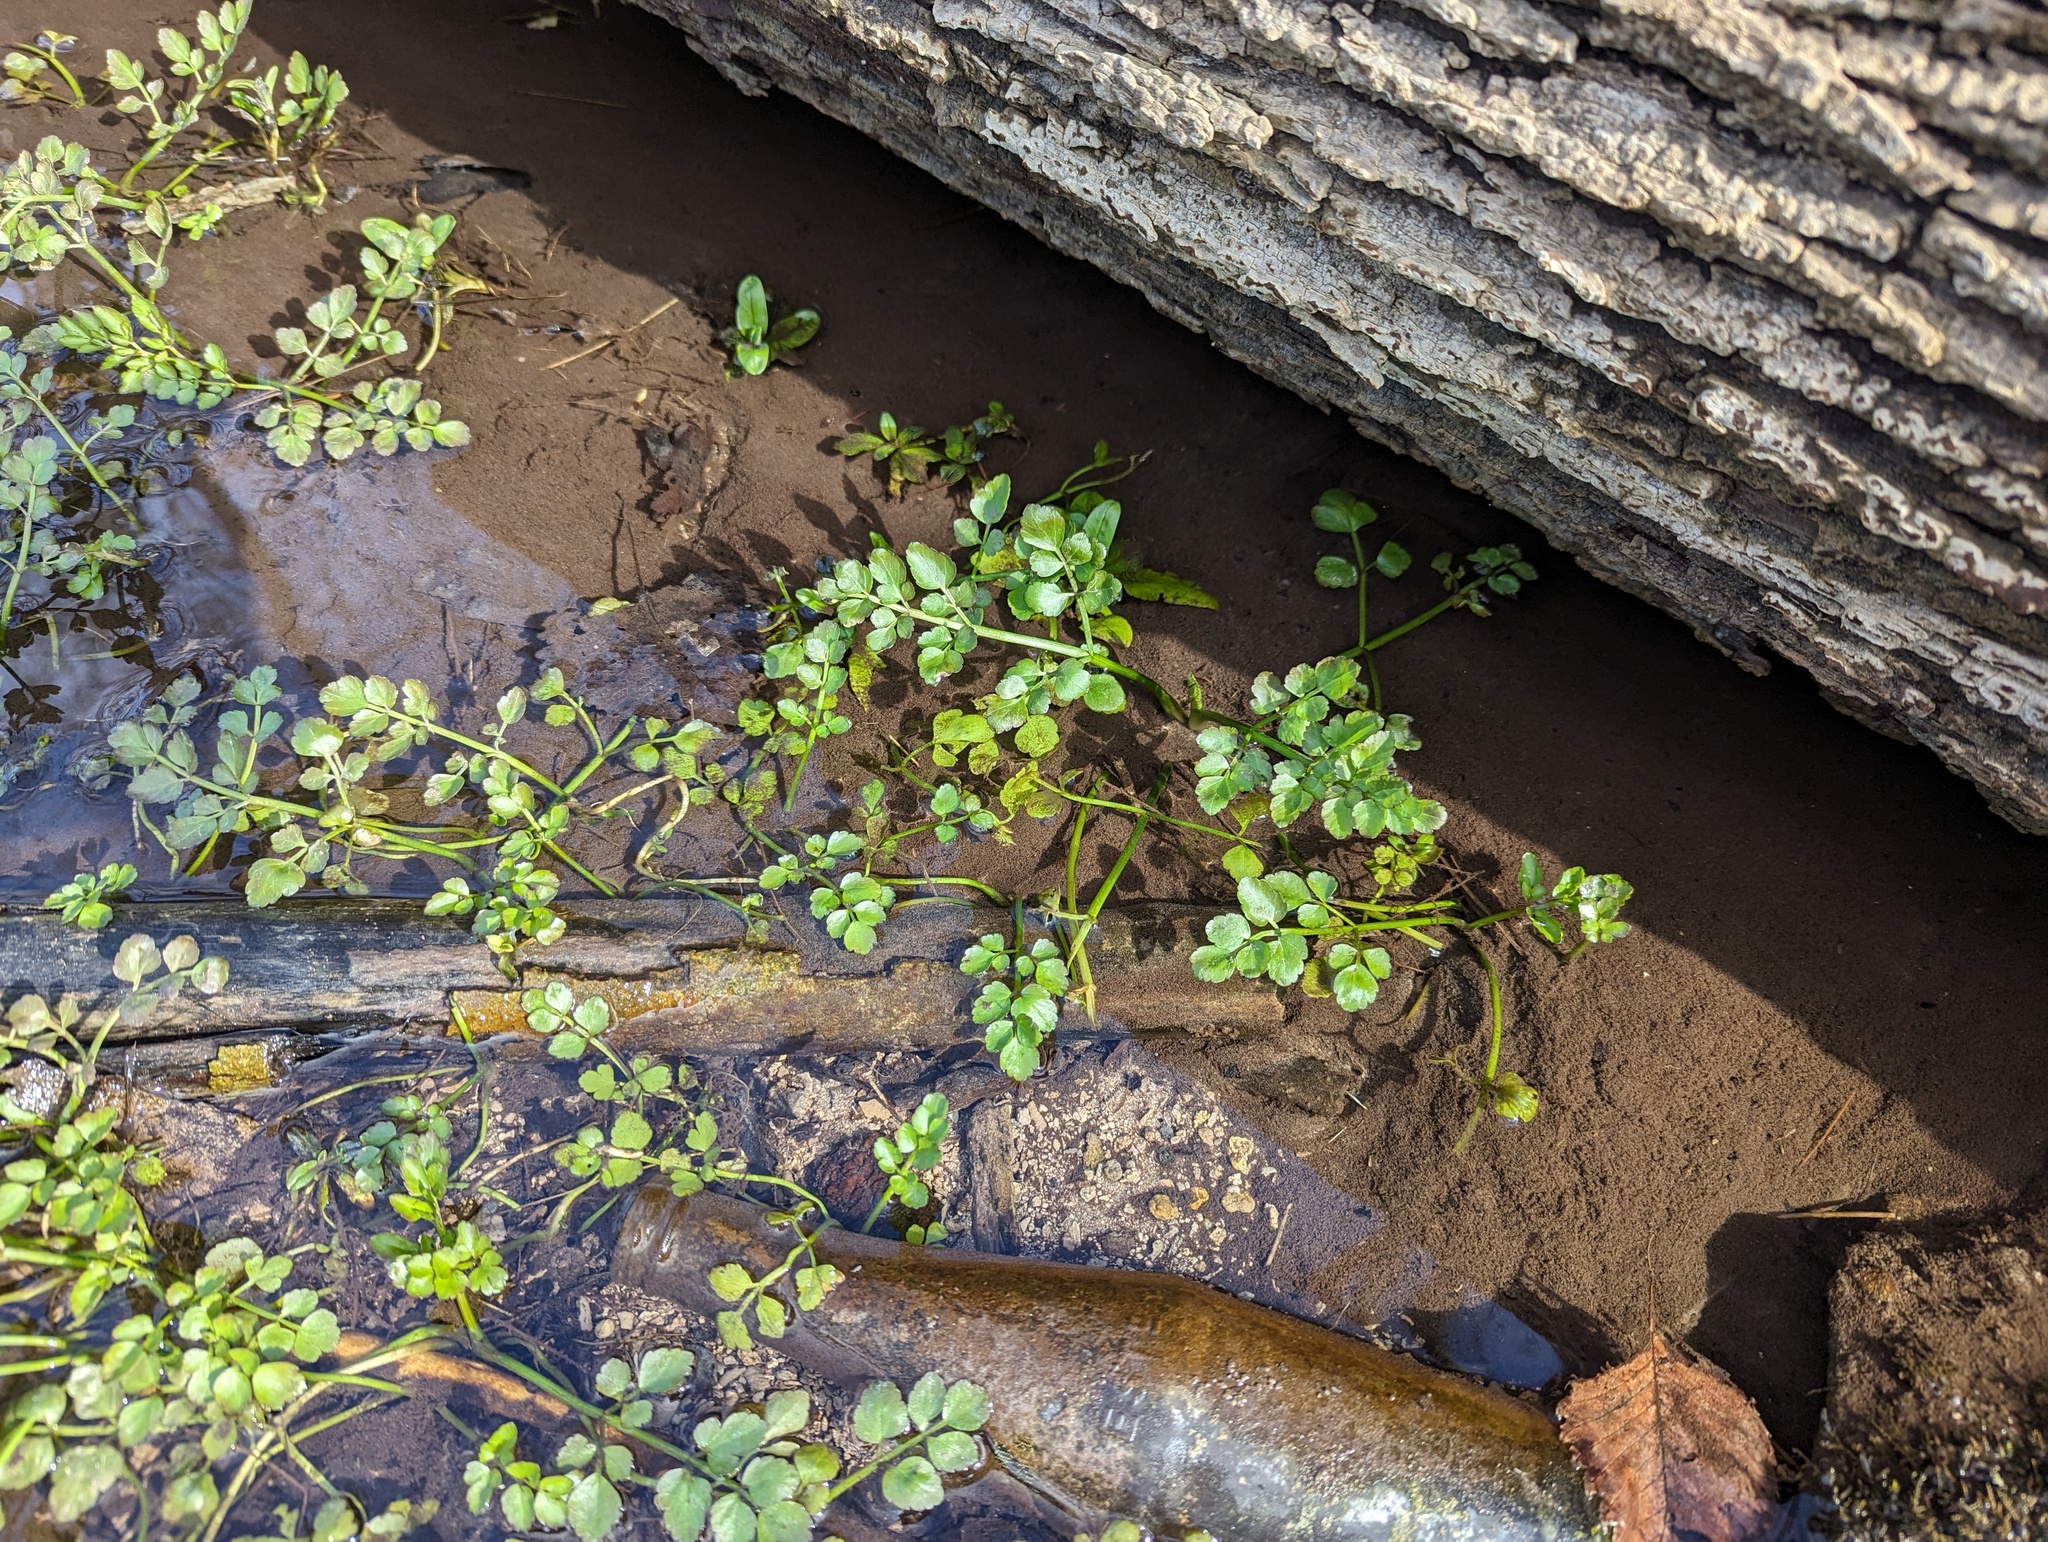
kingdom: Plantae
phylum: Tracheophyta
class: Magnoliopsida
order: Apiales
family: Apiaceae
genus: Oenanthe
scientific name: Oenanthe javanica
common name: Java water-dropwort
